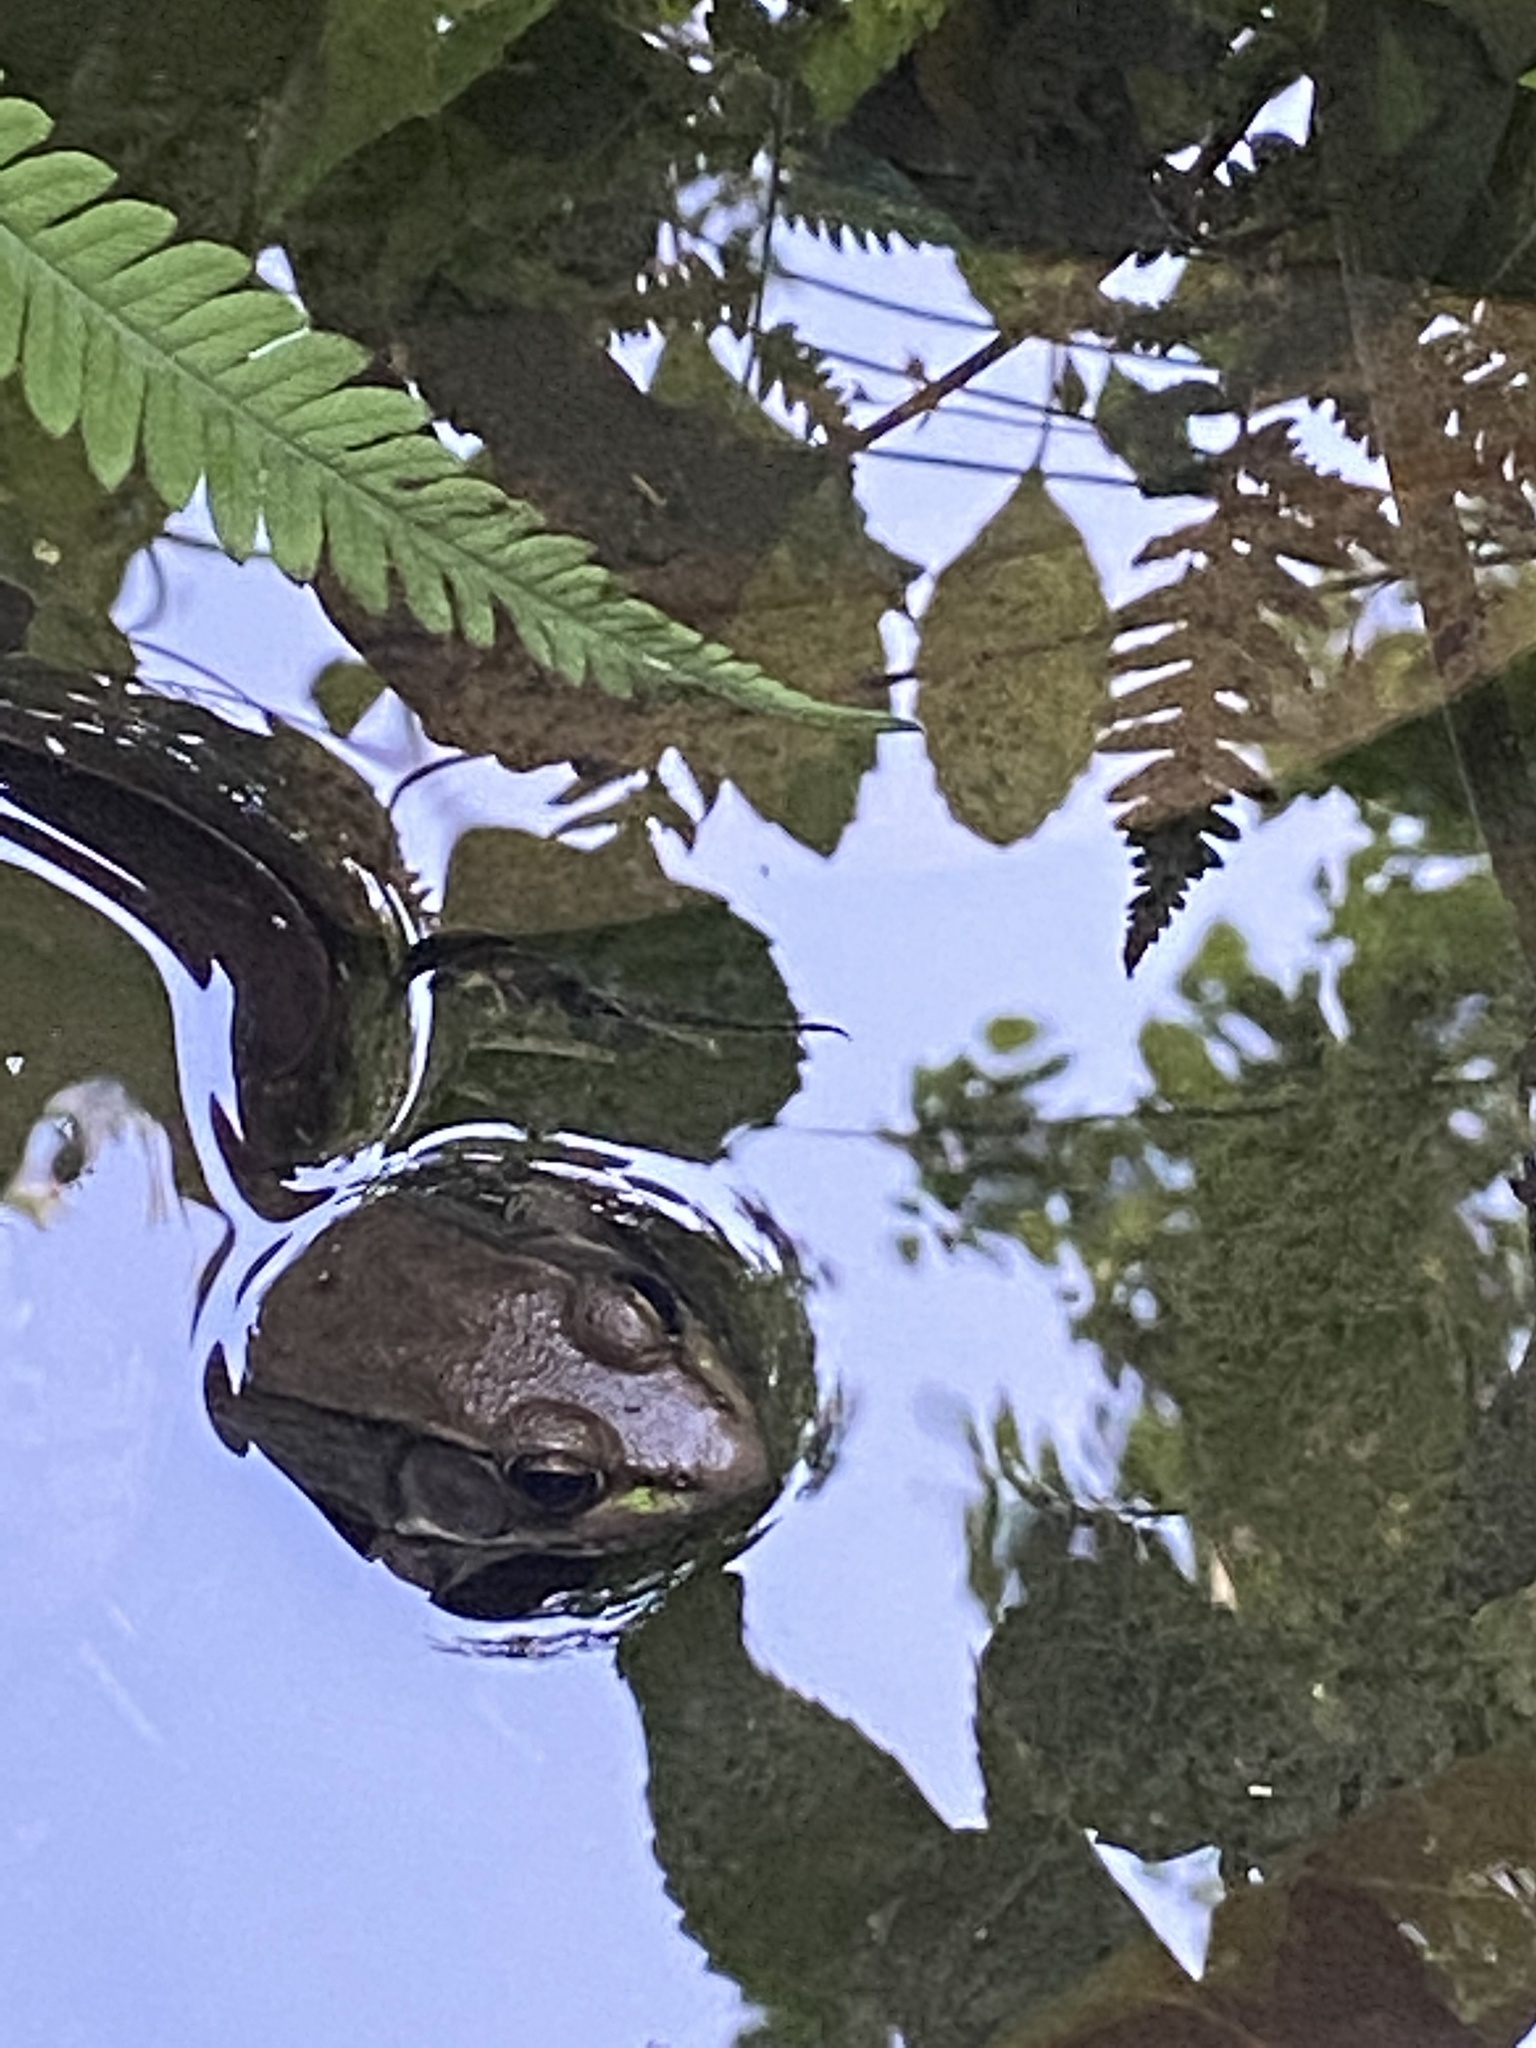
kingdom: Animalia
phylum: Chordata
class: Amphibia
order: Anura
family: Ranidae
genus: Lithobates
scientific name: Lithobates clamitans
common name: Green frog
